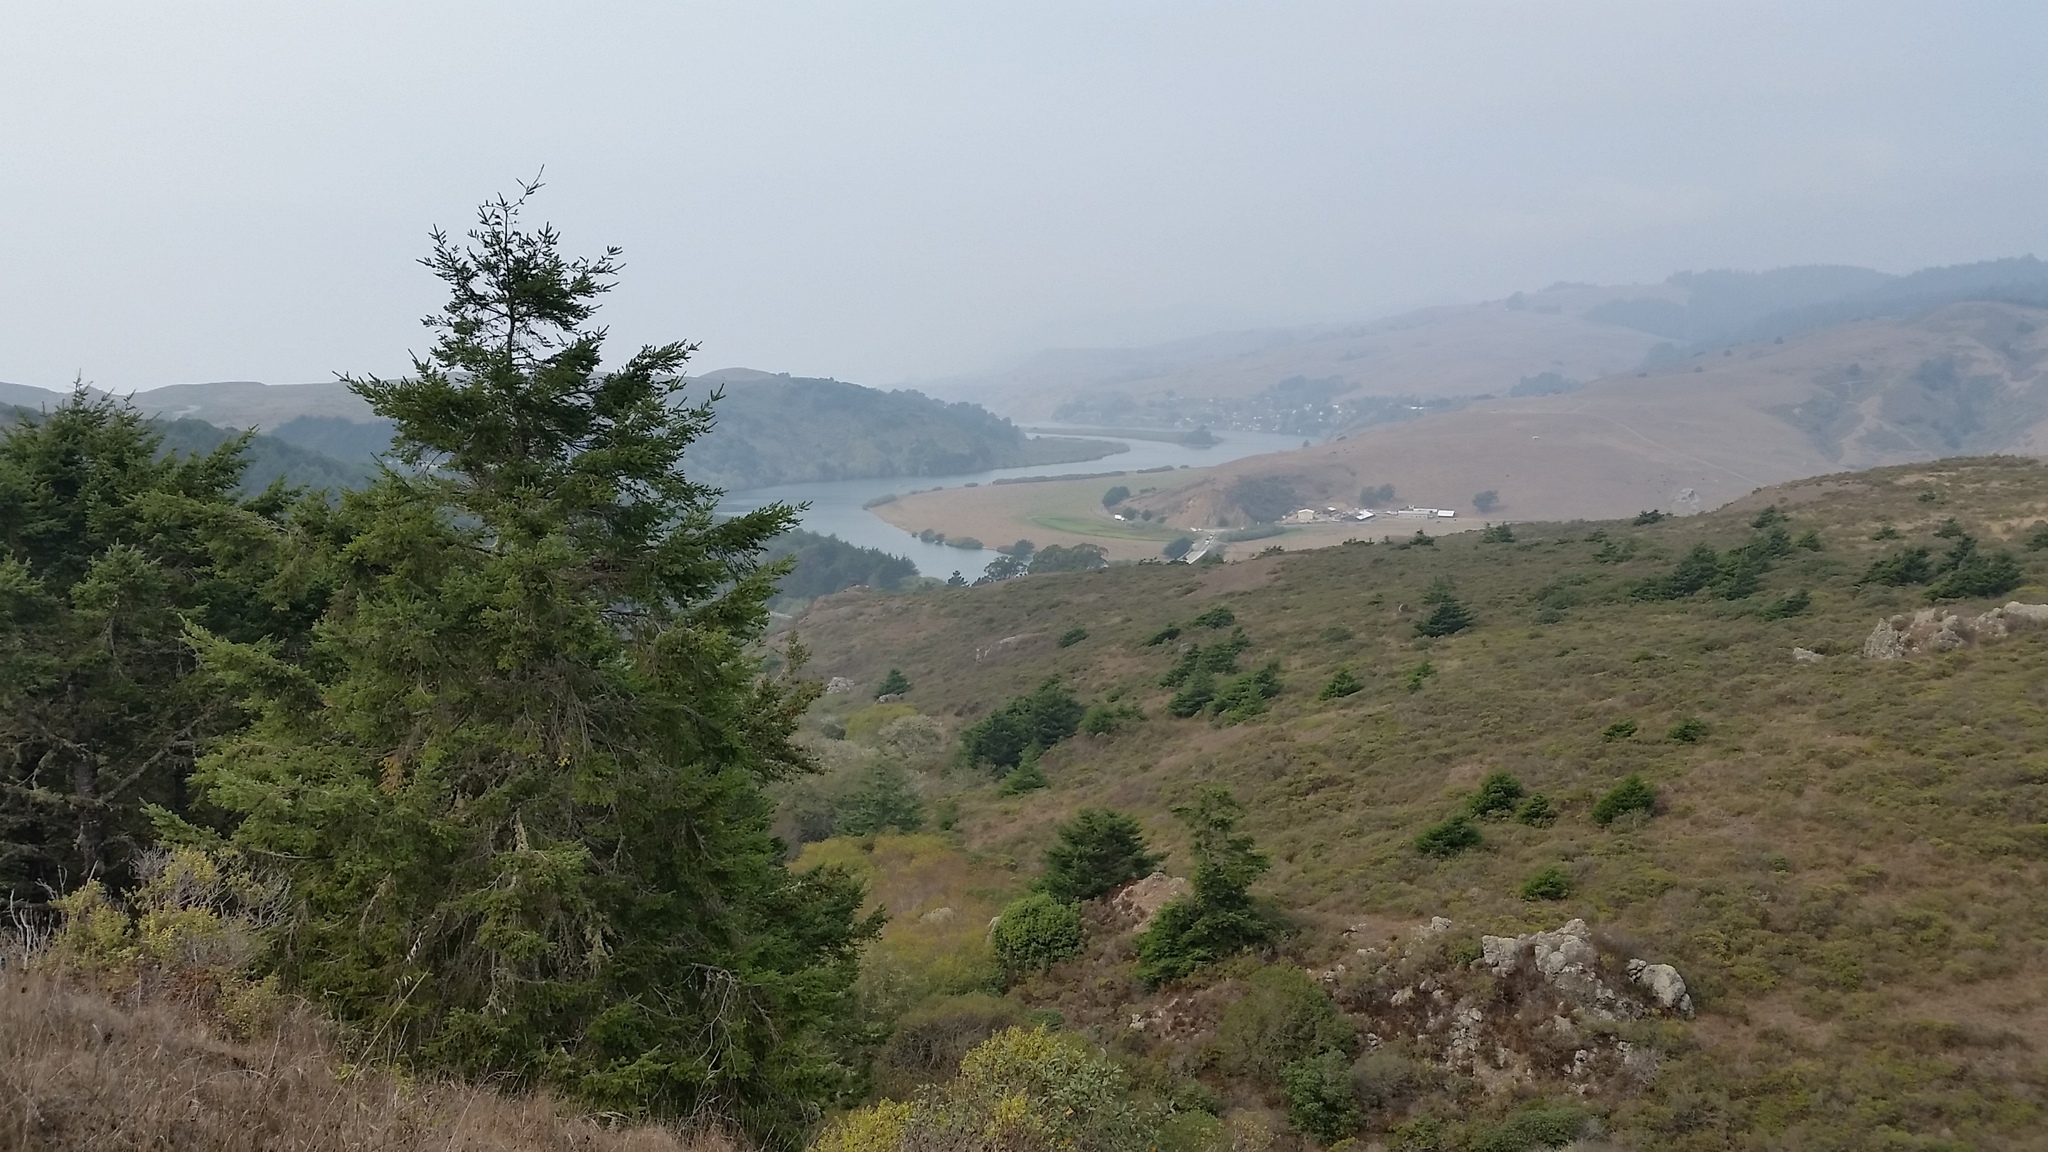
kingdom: Plantae
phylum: Tracheophyta
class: Pinopsida
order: Pinales
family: Pinaceae
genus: Pseudotsuga
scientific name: Pseudotsuga menziesii
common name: Douglas fir
